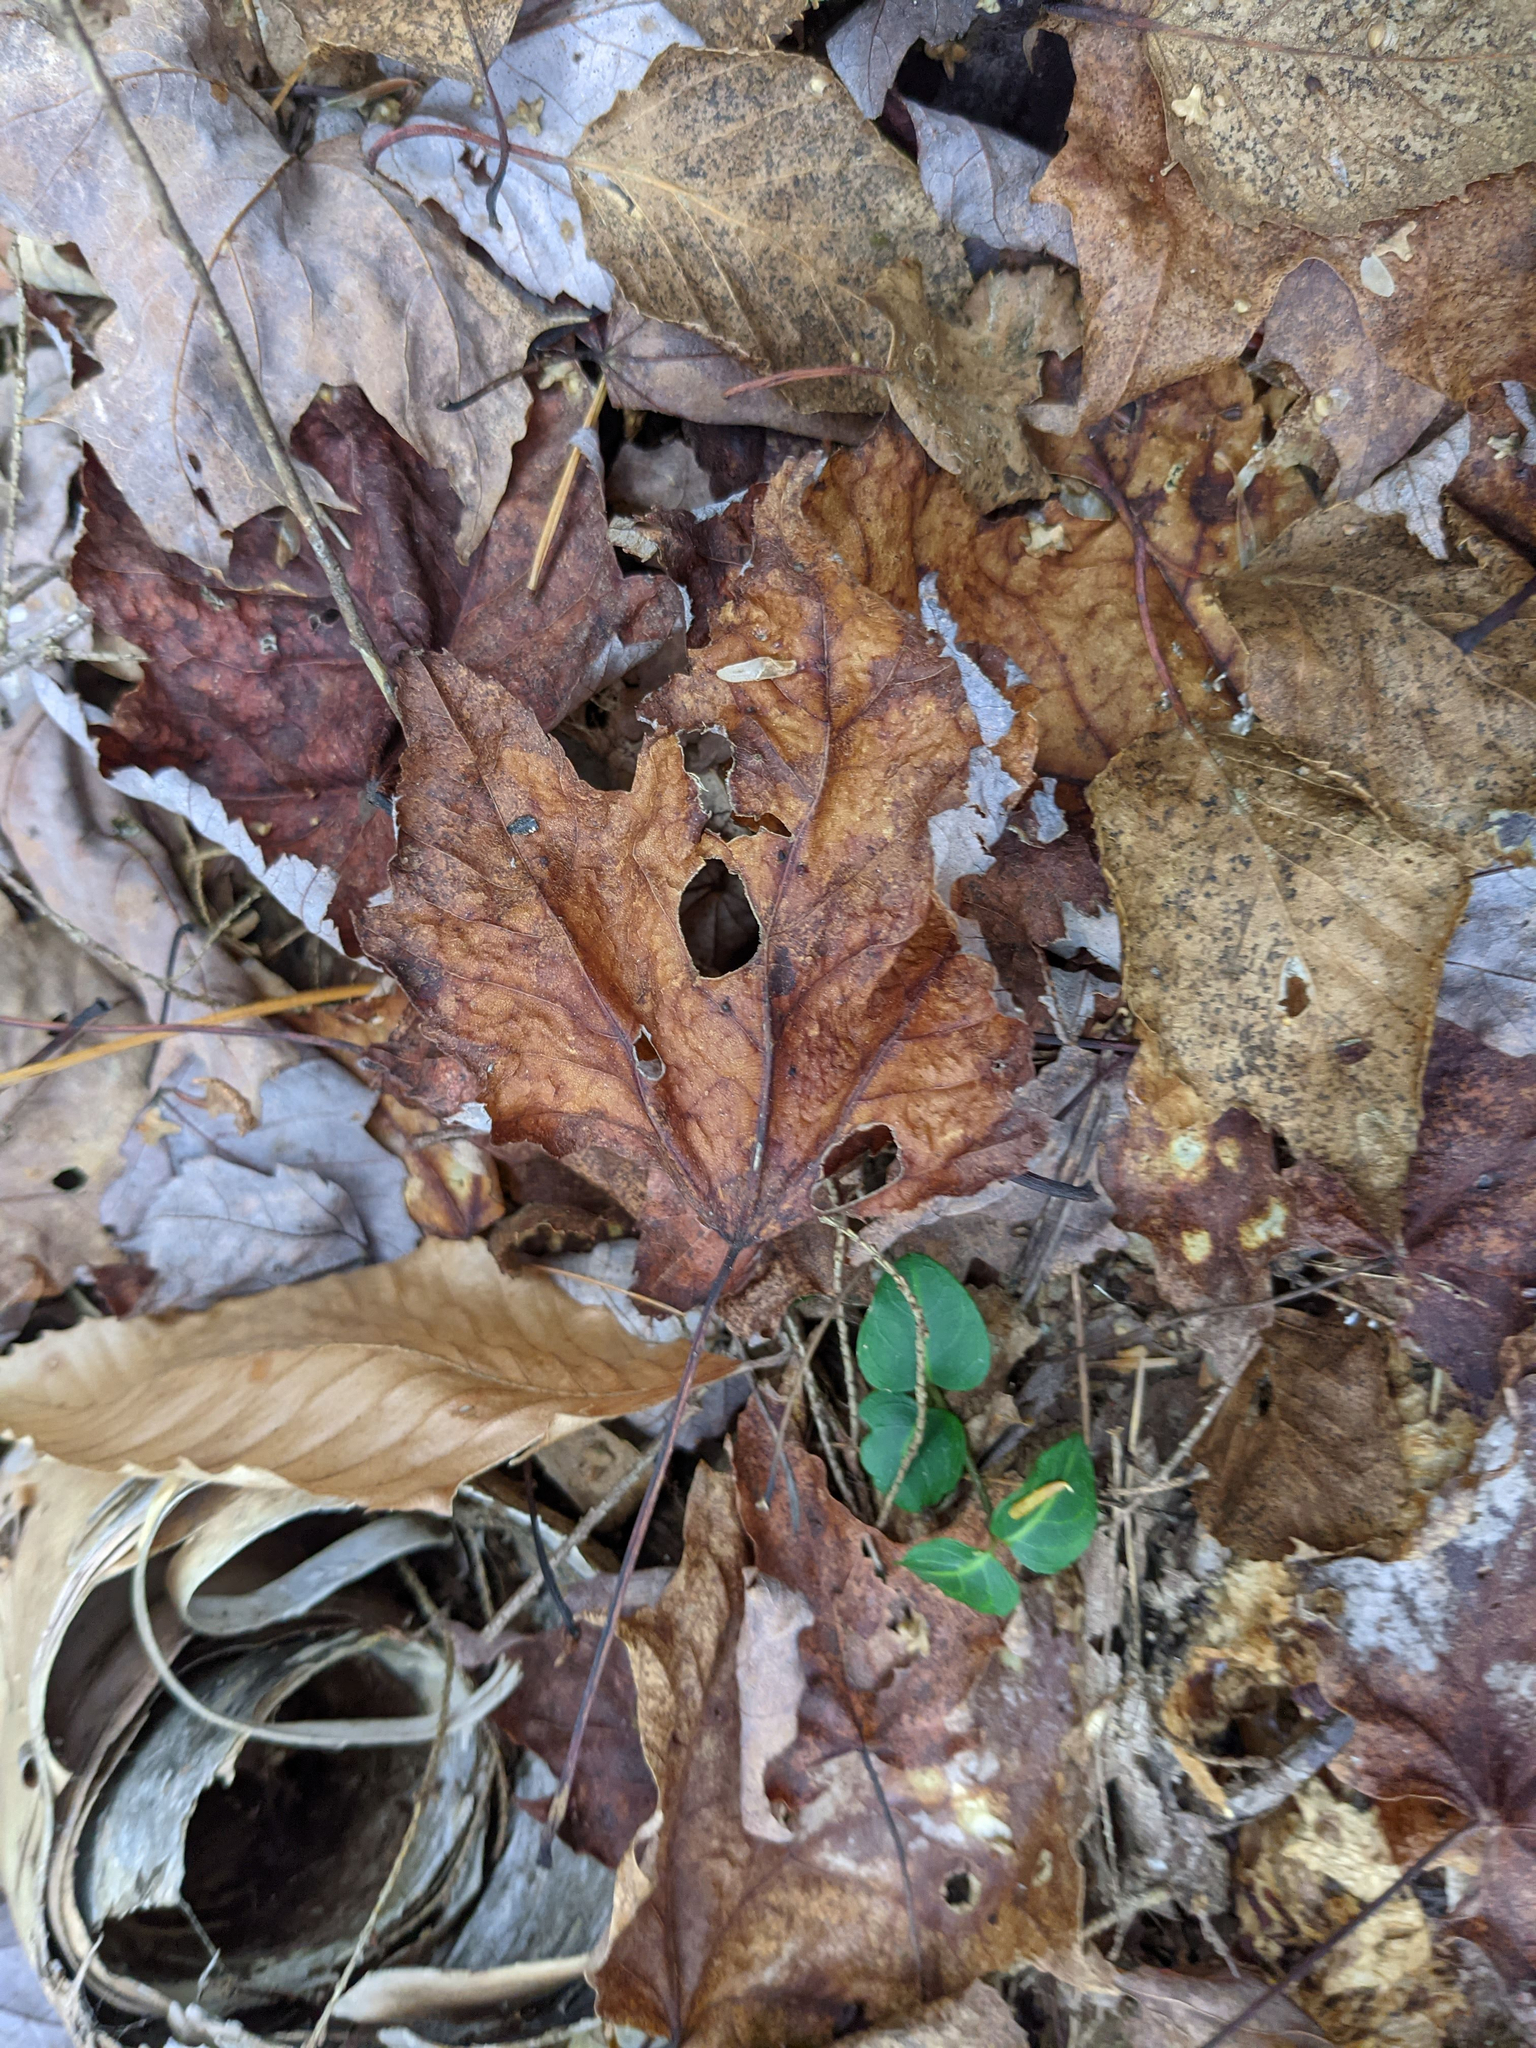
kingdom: Plantae
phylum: Tracheophyta
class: Magnoliopsida
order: Gentianales
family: Rubiaceae
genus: Mitchella
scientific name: Mitchella repens
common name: Partridge-berry
